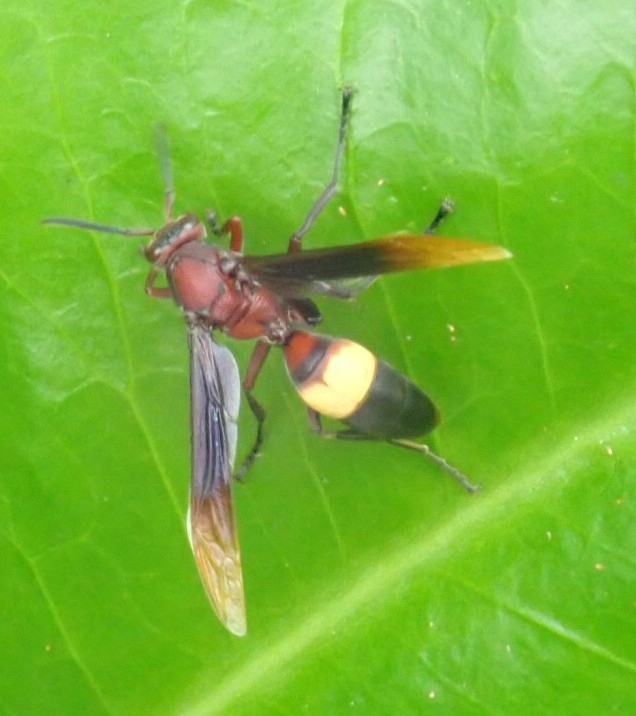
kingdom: Animalia
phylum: Arthropoda
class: Insecta
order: Hymenoptera
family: Eumenidae
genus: Polistes
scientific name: Polistes sagittarius
